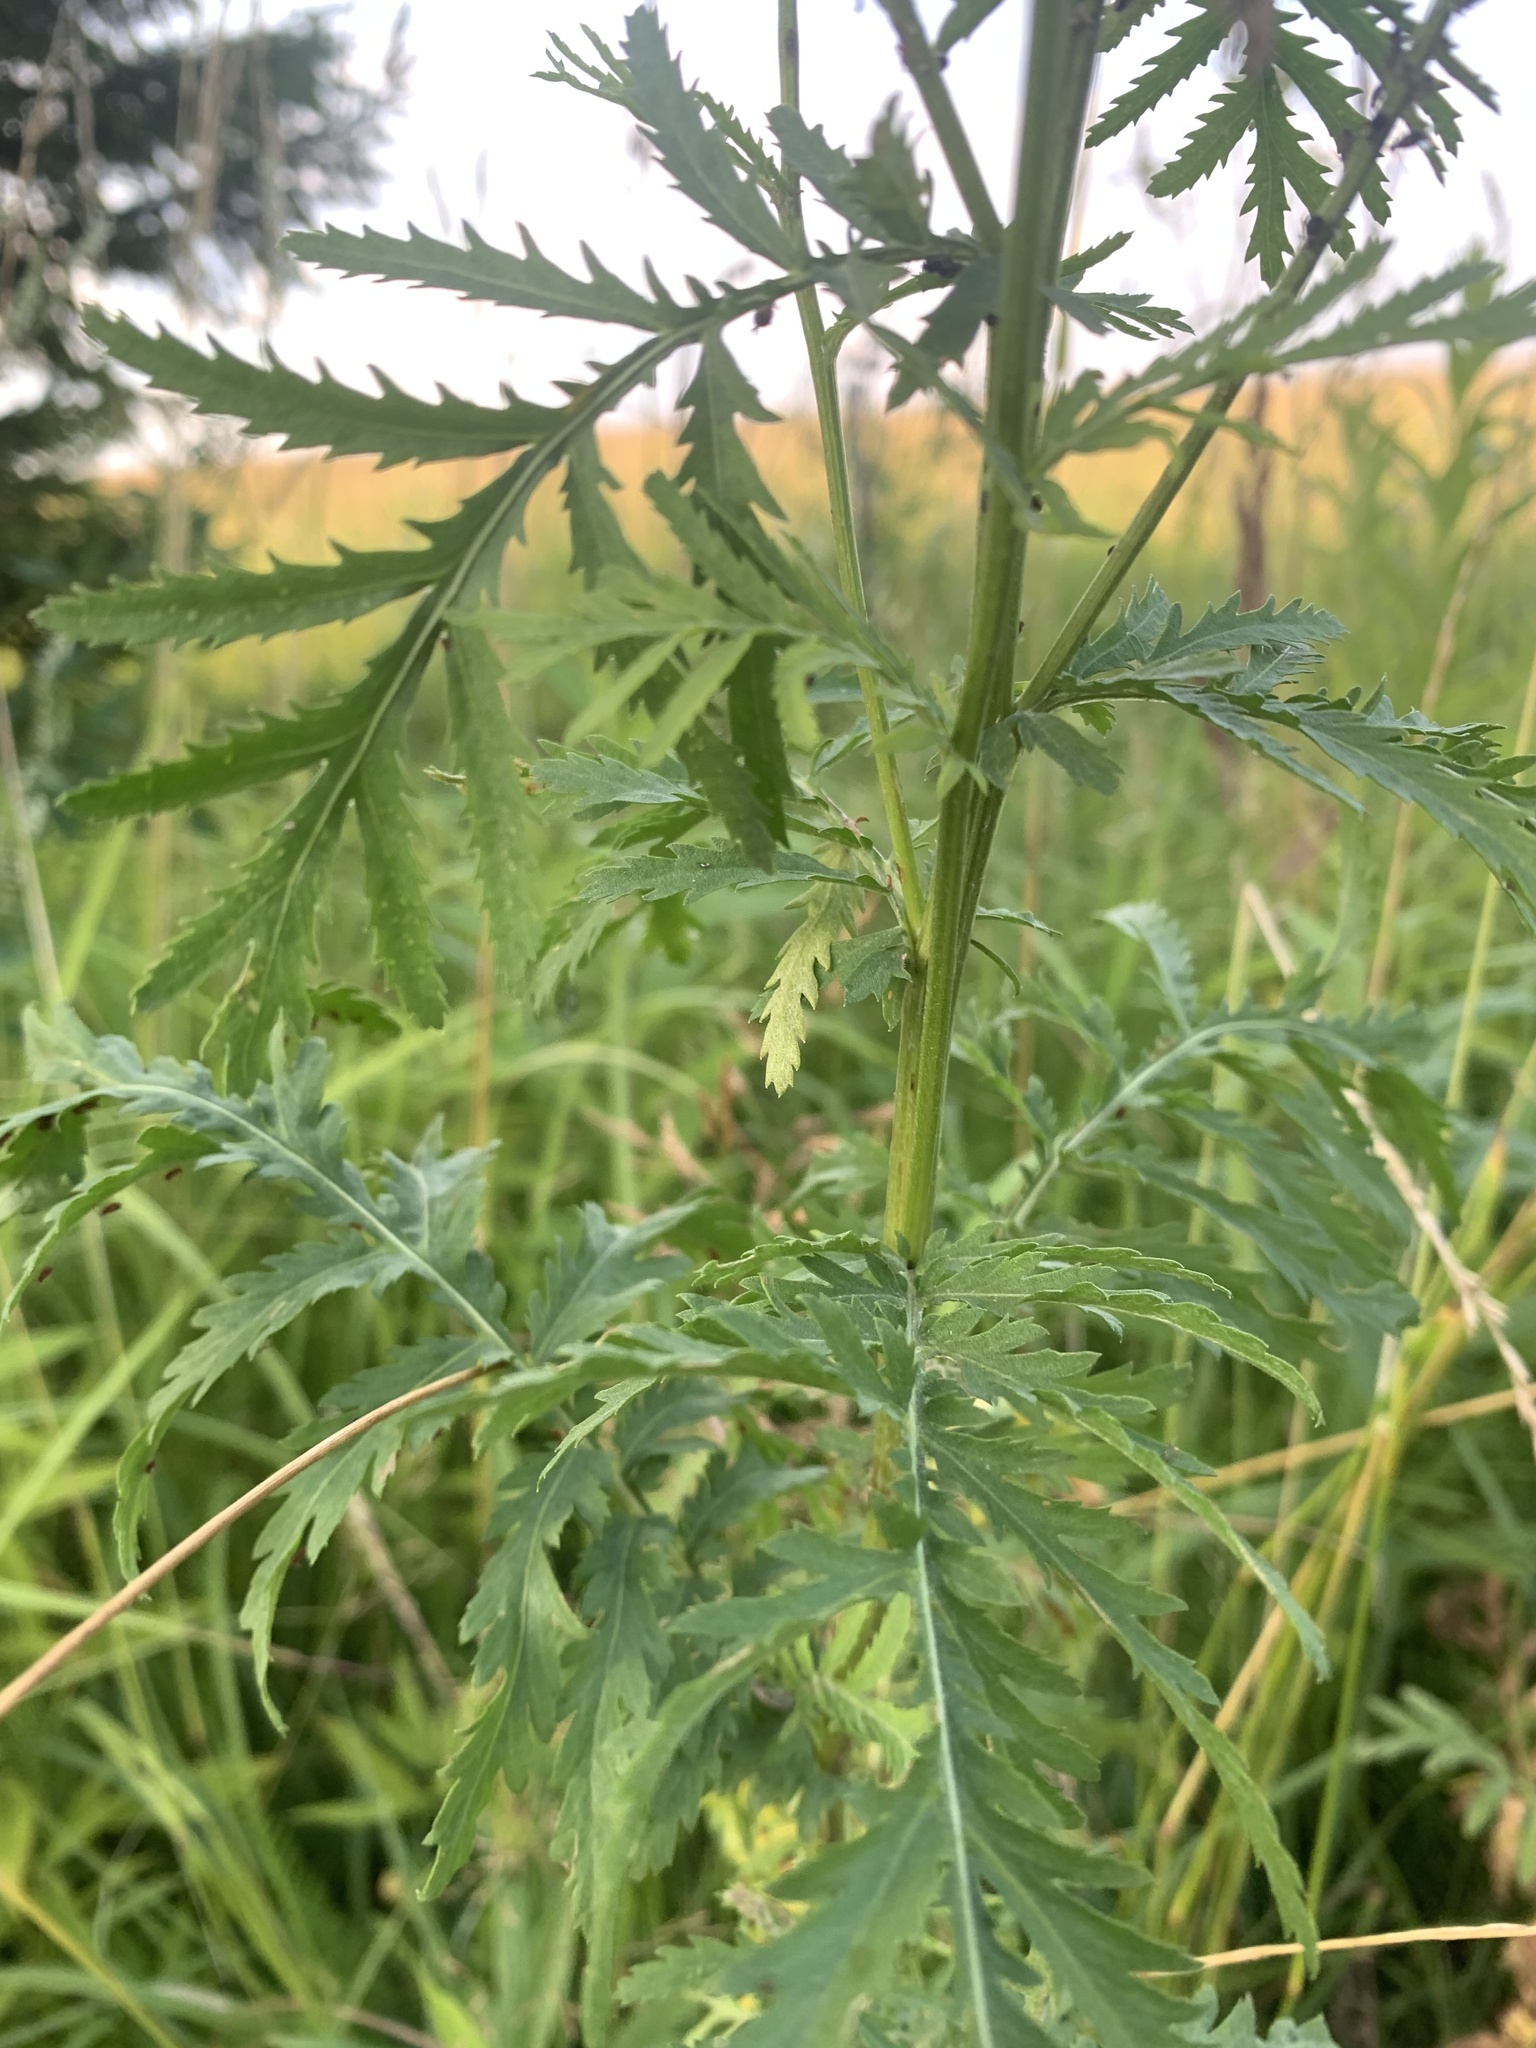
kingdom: Plantae
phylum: Tracheophyta
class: Magnoliopsida
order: Asterales
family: Asteraceae
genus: Tanacetum
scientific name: Tanacetum vulgare
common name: Common tansy
